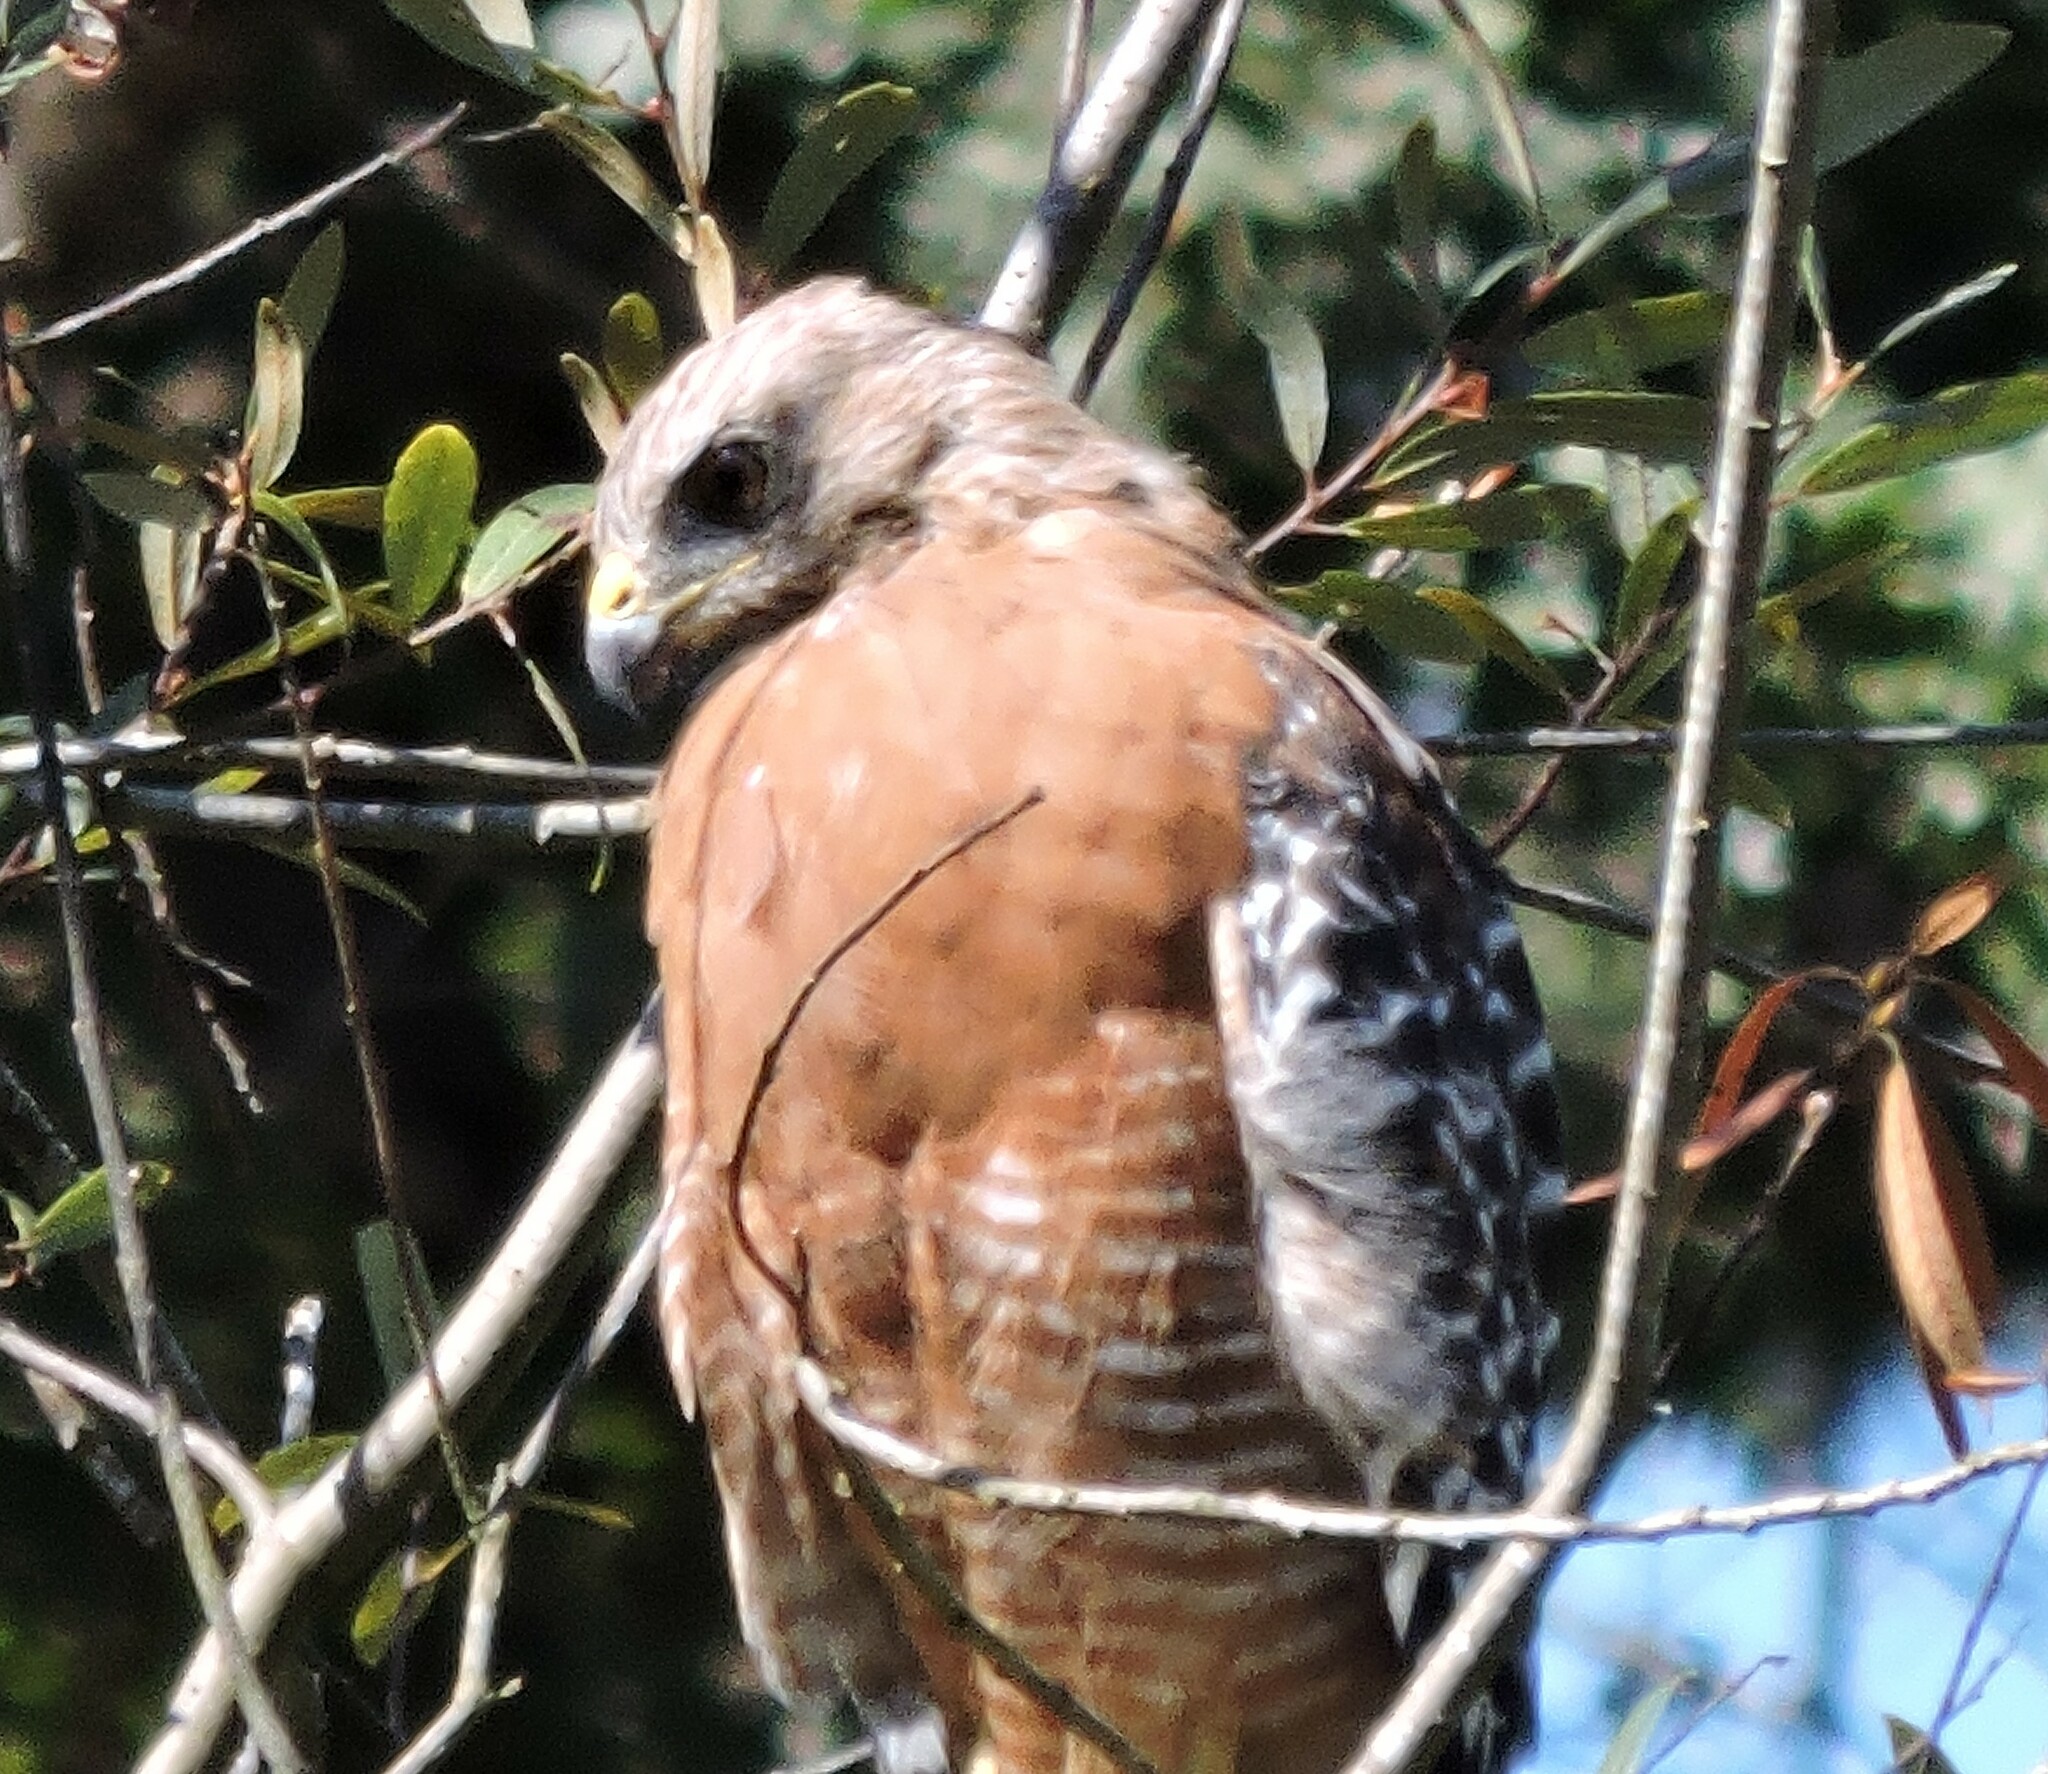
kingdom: Animalia
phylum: Chordata
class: Aves
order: Accipitriformes
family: Accipitridae
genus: Buteo
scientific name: Buteo lineatus
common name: Red-shouldered hawk
